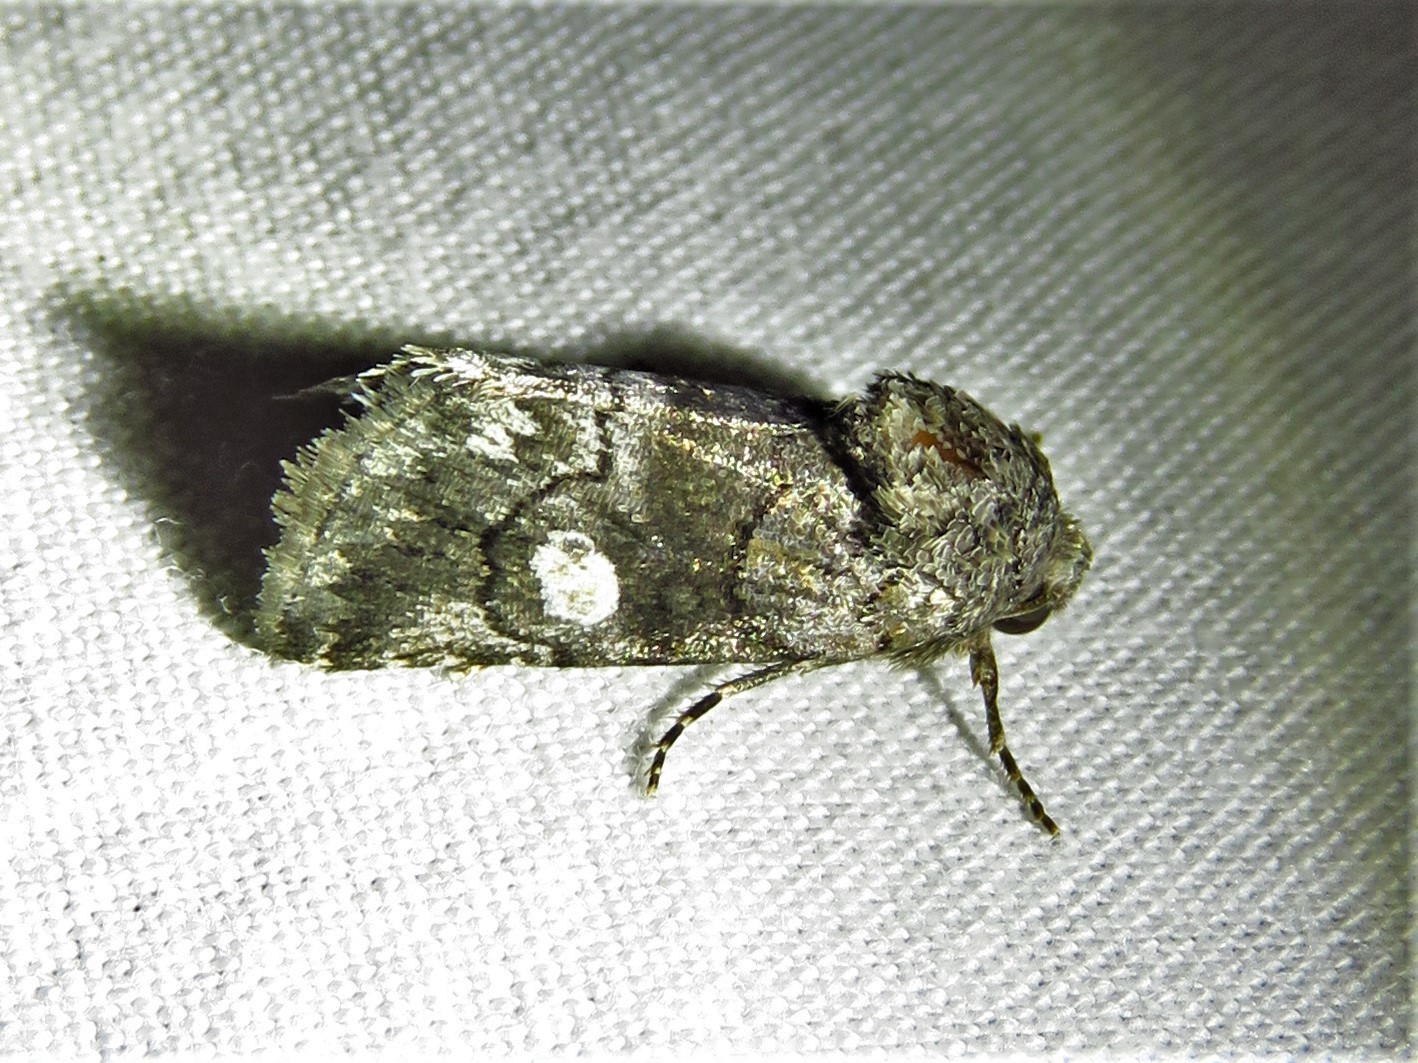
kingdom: Animalia
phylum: Arthropoda
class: Insecta
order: Lepidoptera
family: Noctuidae
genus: Copanarta
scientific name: Copanarta aurea
